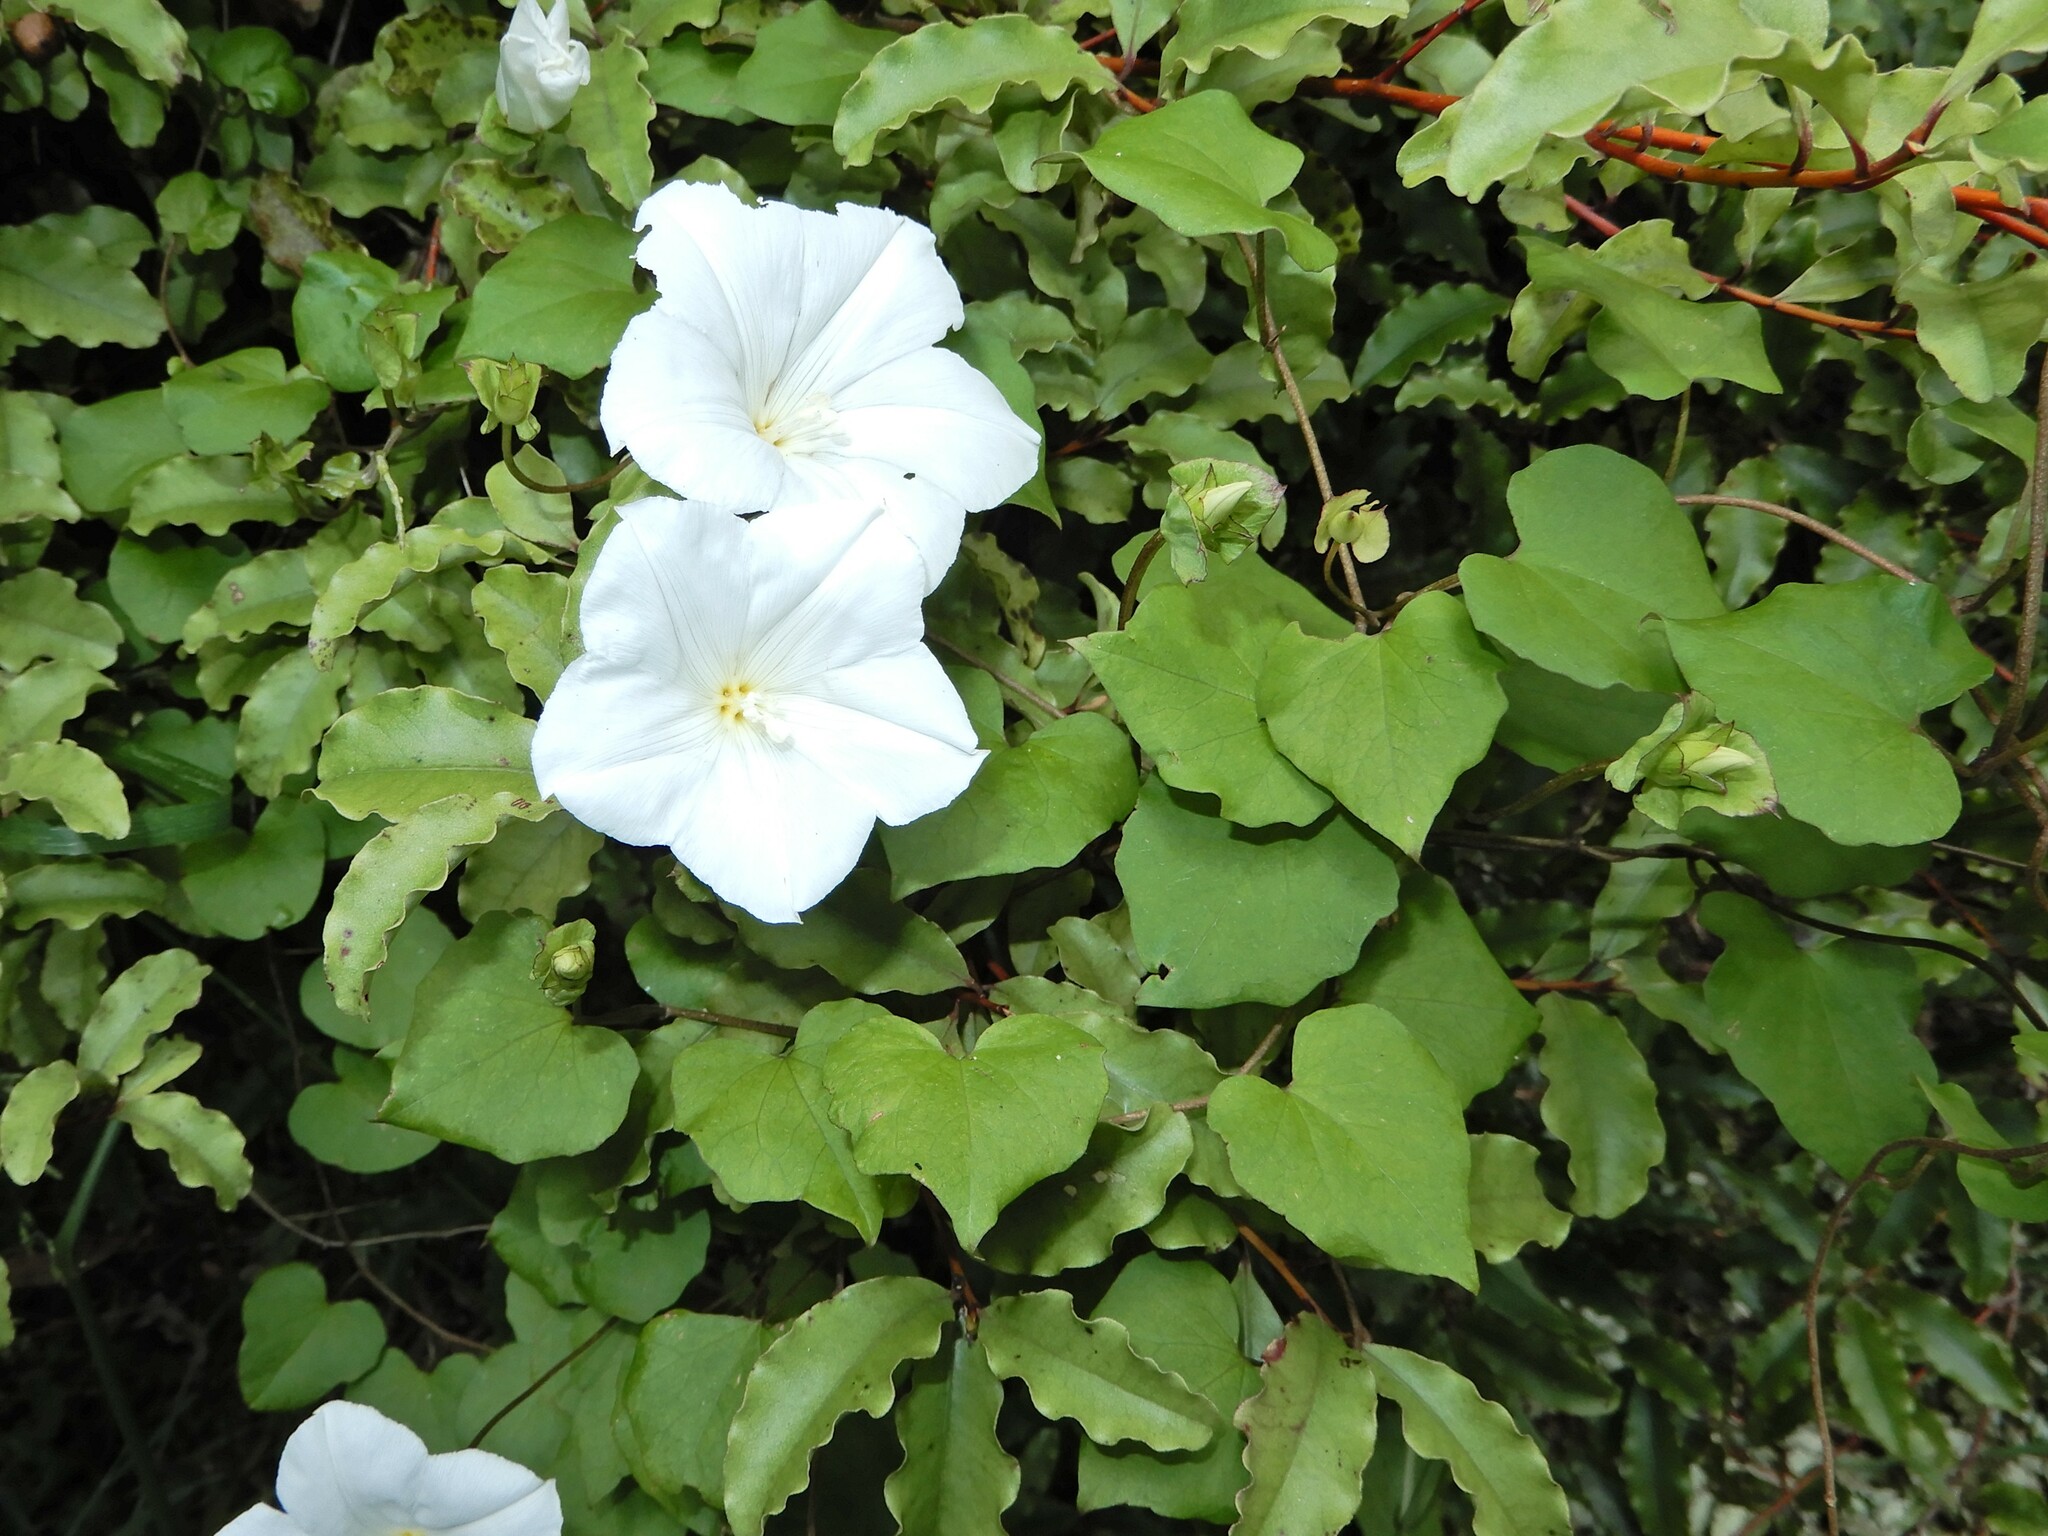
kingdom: Plantae
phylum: Tracheophyta
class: Magnoliopsida
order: Solanales
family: Convolvulaceae
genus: Calystegia
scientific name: Calystegia tuguriorum
